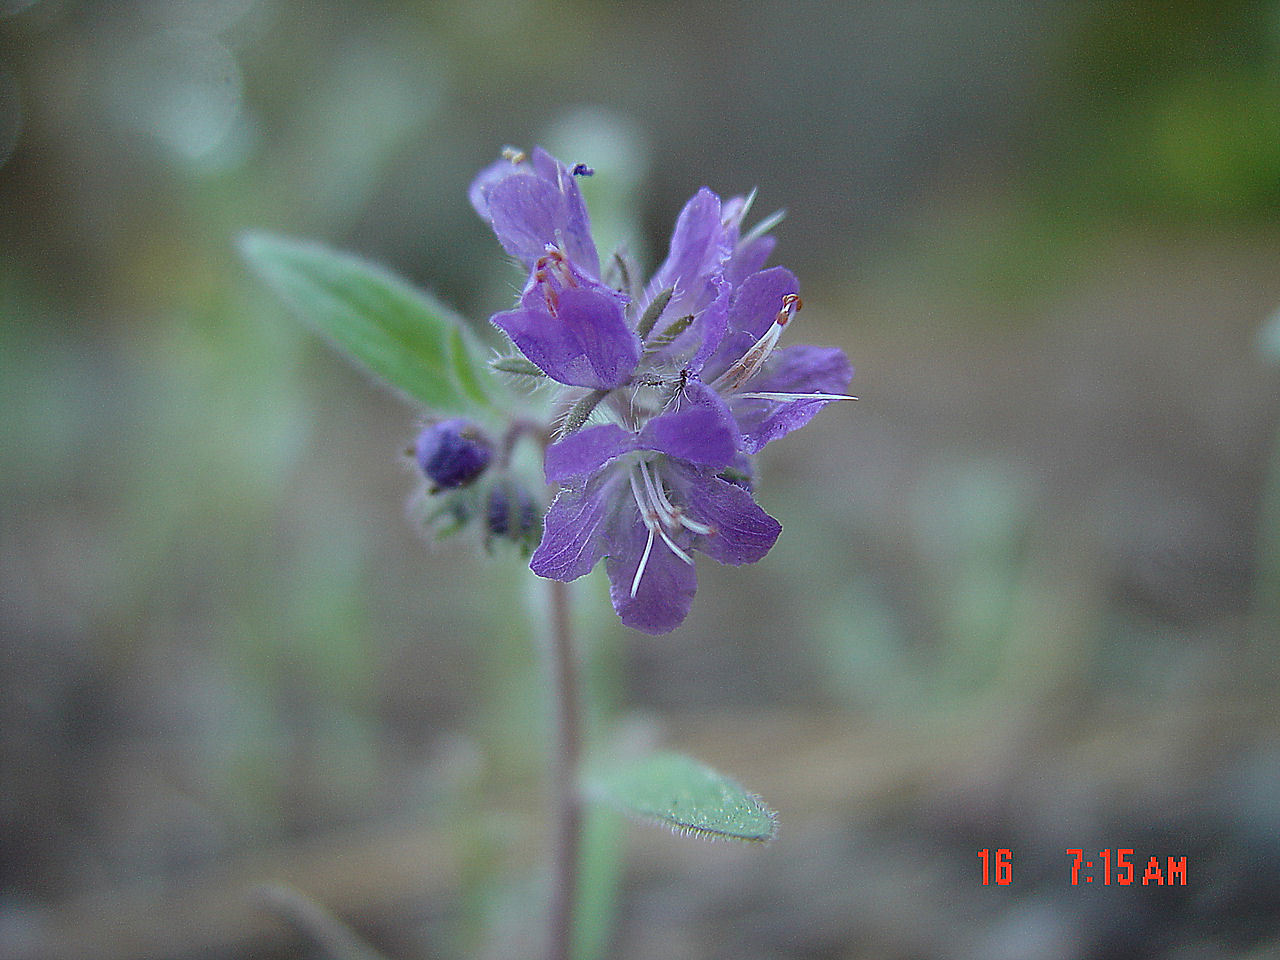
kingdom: Plantae
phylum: Tracheophyta
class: Magnoliopsida
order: Boraginales
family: Hydrophyllaceae
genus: Phacelia
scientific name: Phacelia humilis
